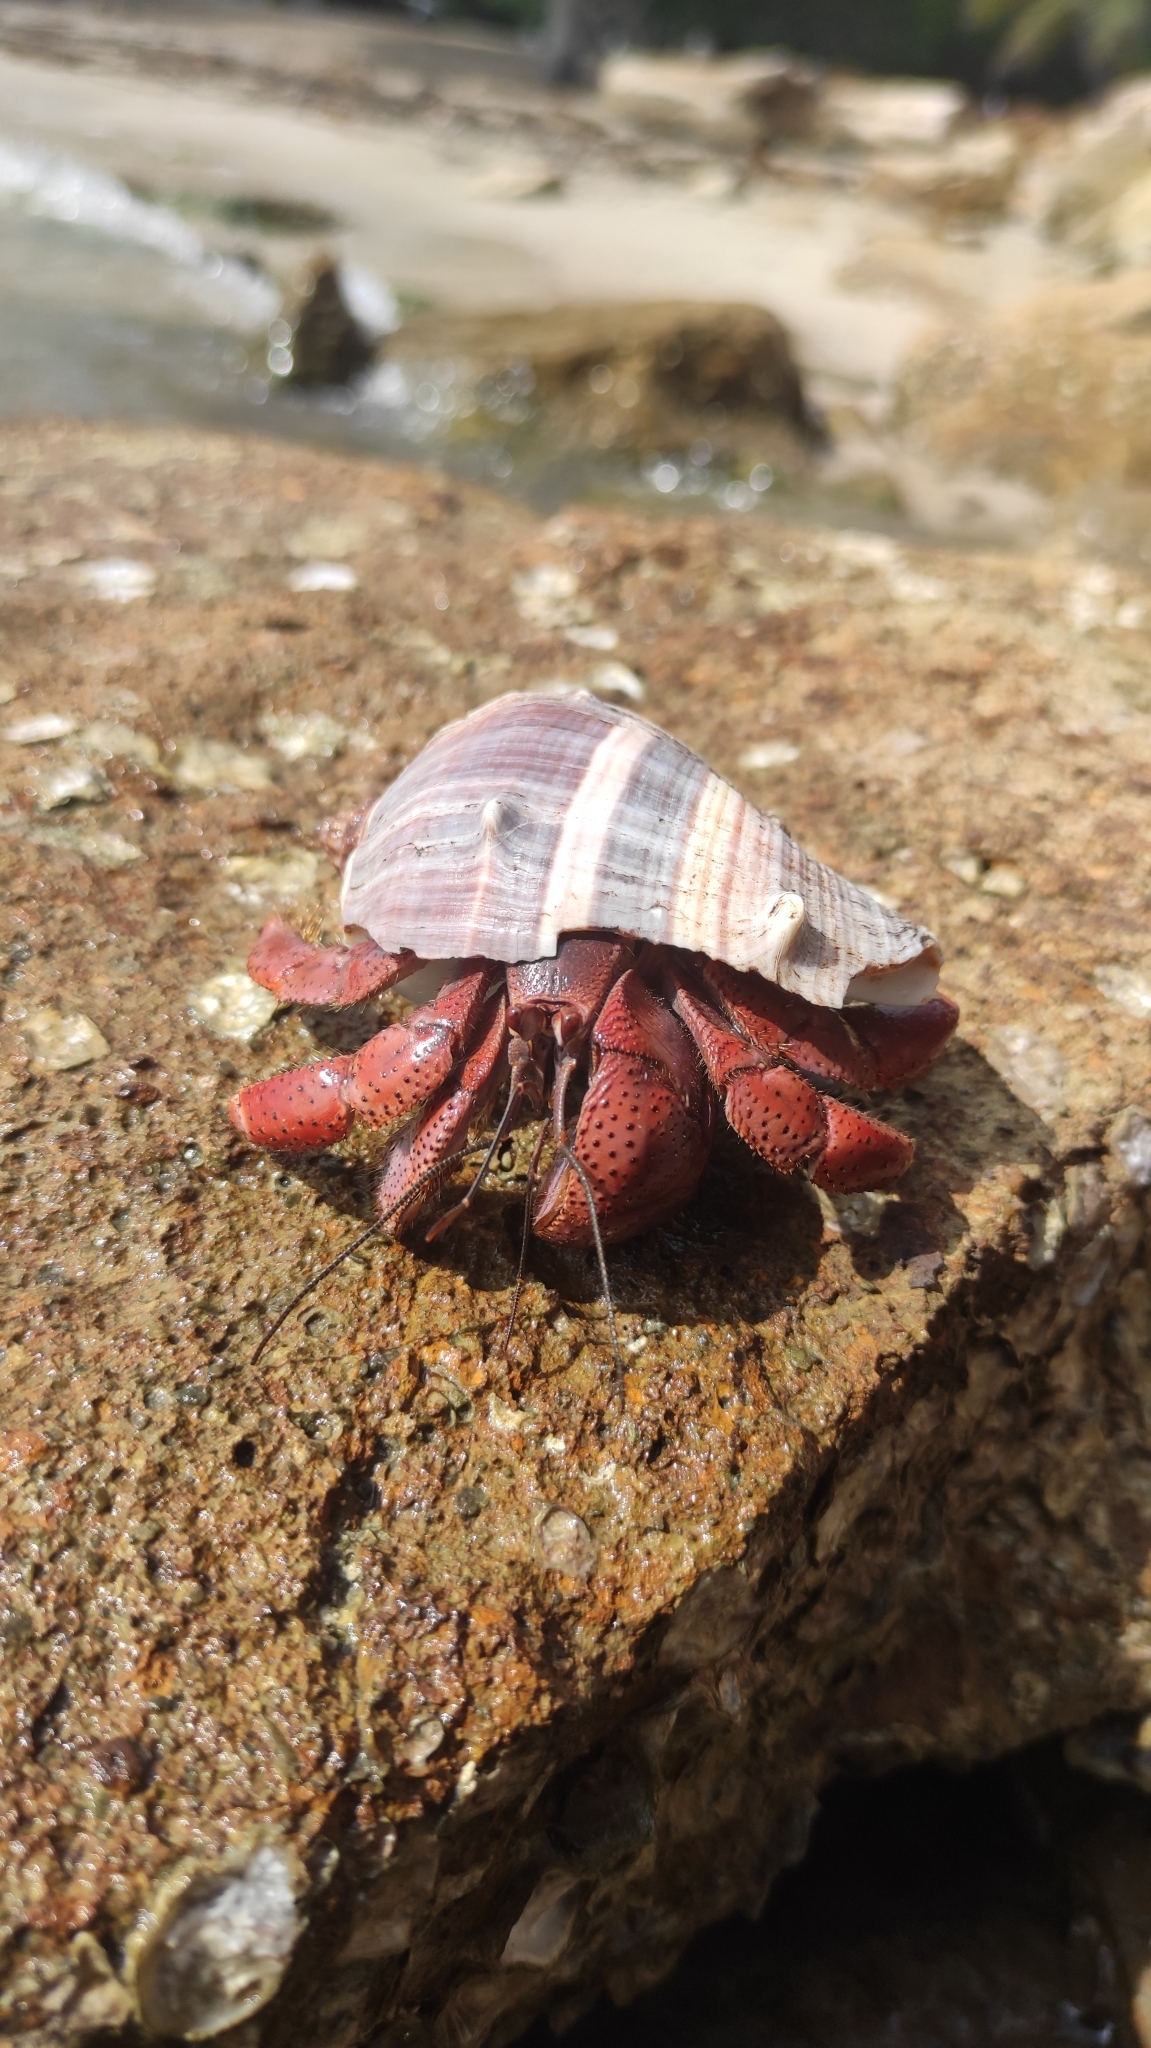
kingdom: Animalia
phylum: Arthropoda
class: Malacostraca
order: Decapoda
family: Coenobitidae
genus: Coenobita
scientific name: Coenobita clypeatus
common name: Caribbean hermit crab
